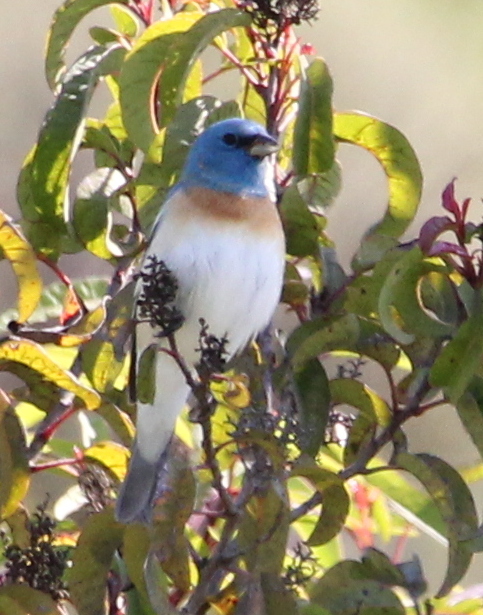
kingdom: Animalia
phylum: Chordata
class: Aves
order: Passeriformes
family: Cardinalidae
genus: Passerina
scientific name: Passerina amoena
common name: Lazuli bunting
